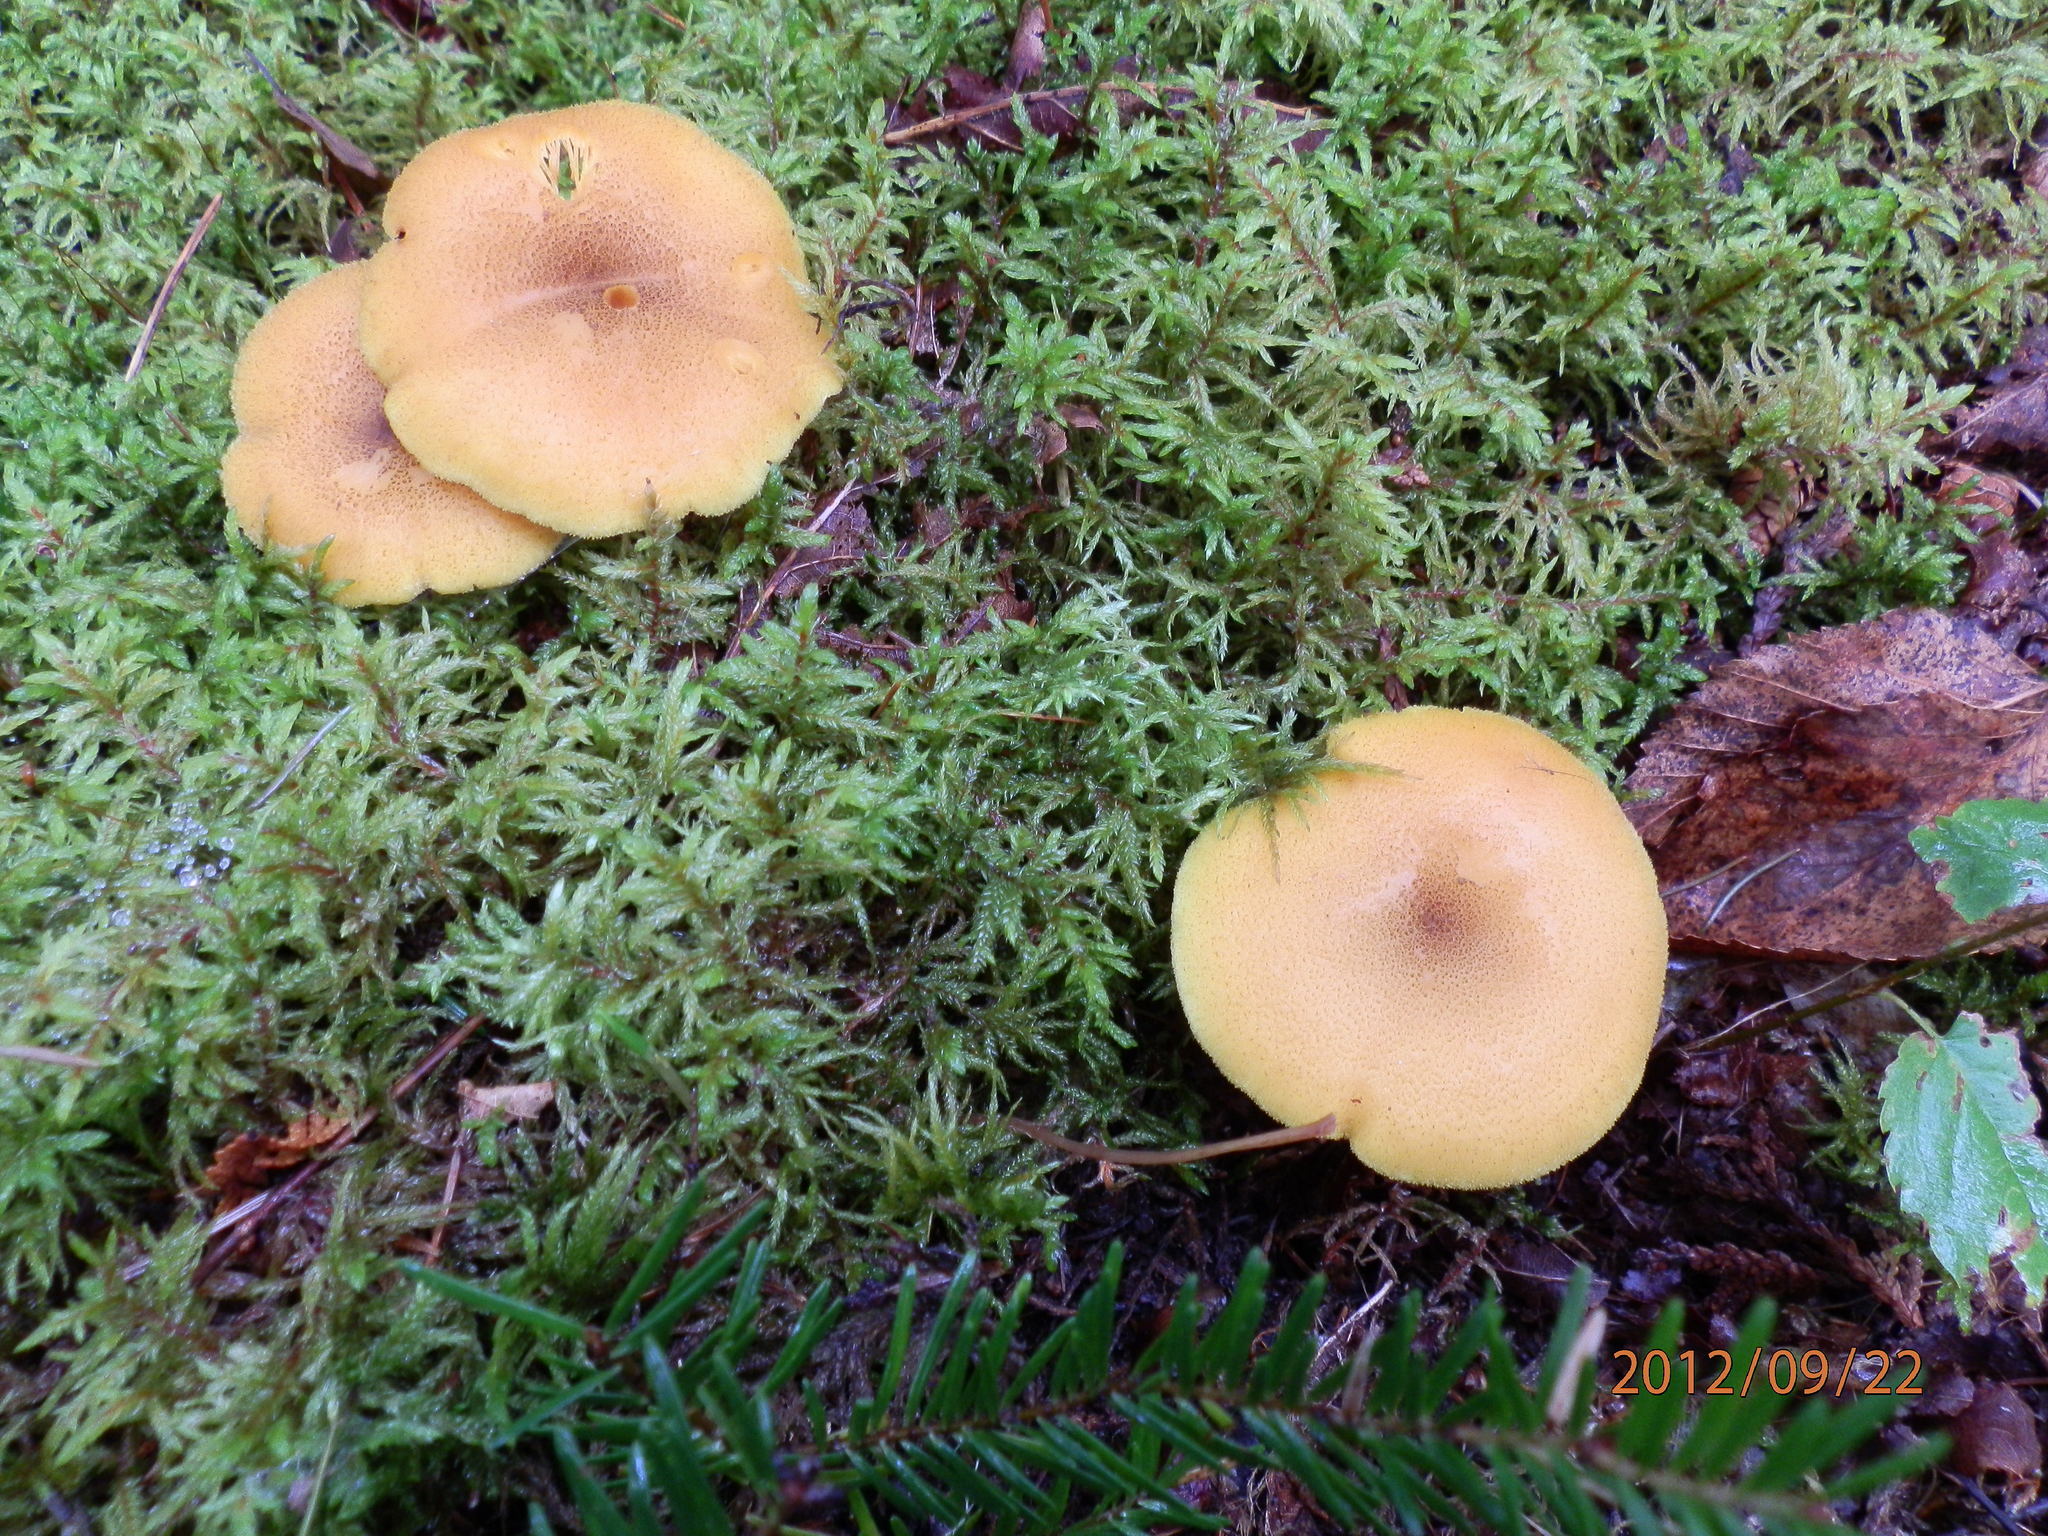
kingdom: Fungi
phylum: Basidiomycota
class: Agaricomycetes
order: Agaricales
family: Tricholomataceae
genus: Tricholomopsis
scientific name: Tricholomopsis decora
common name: Prunes and custard
